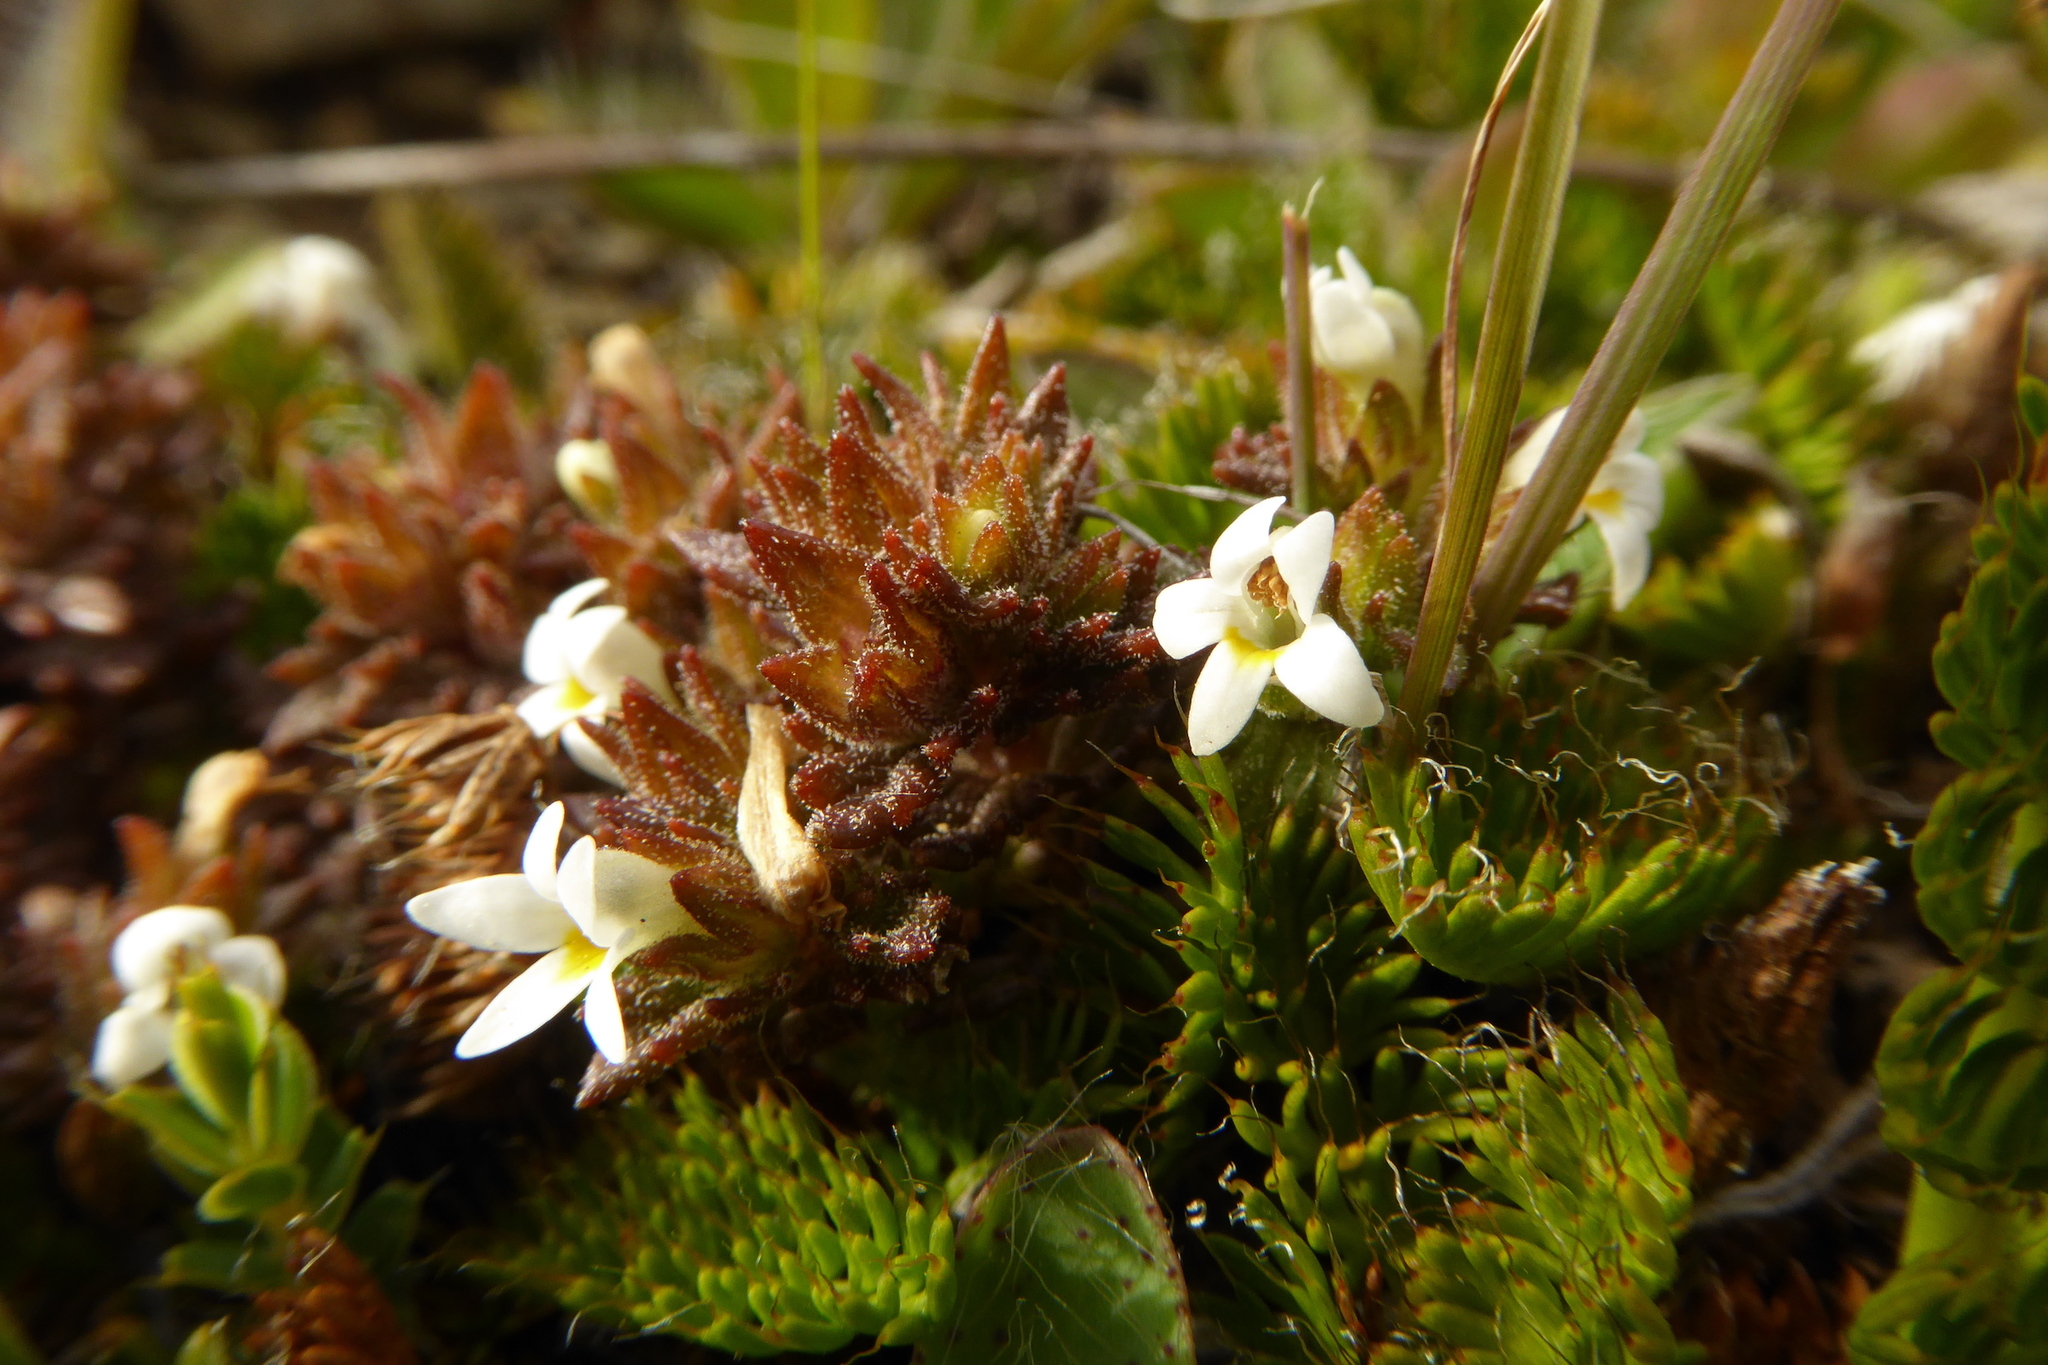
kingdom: Plantae
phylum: Tracheophyta
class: Magnoliopsida
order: Lamiales
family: Orobanchaceae
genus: Euphrasia
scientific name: Euphrasia zelandica
